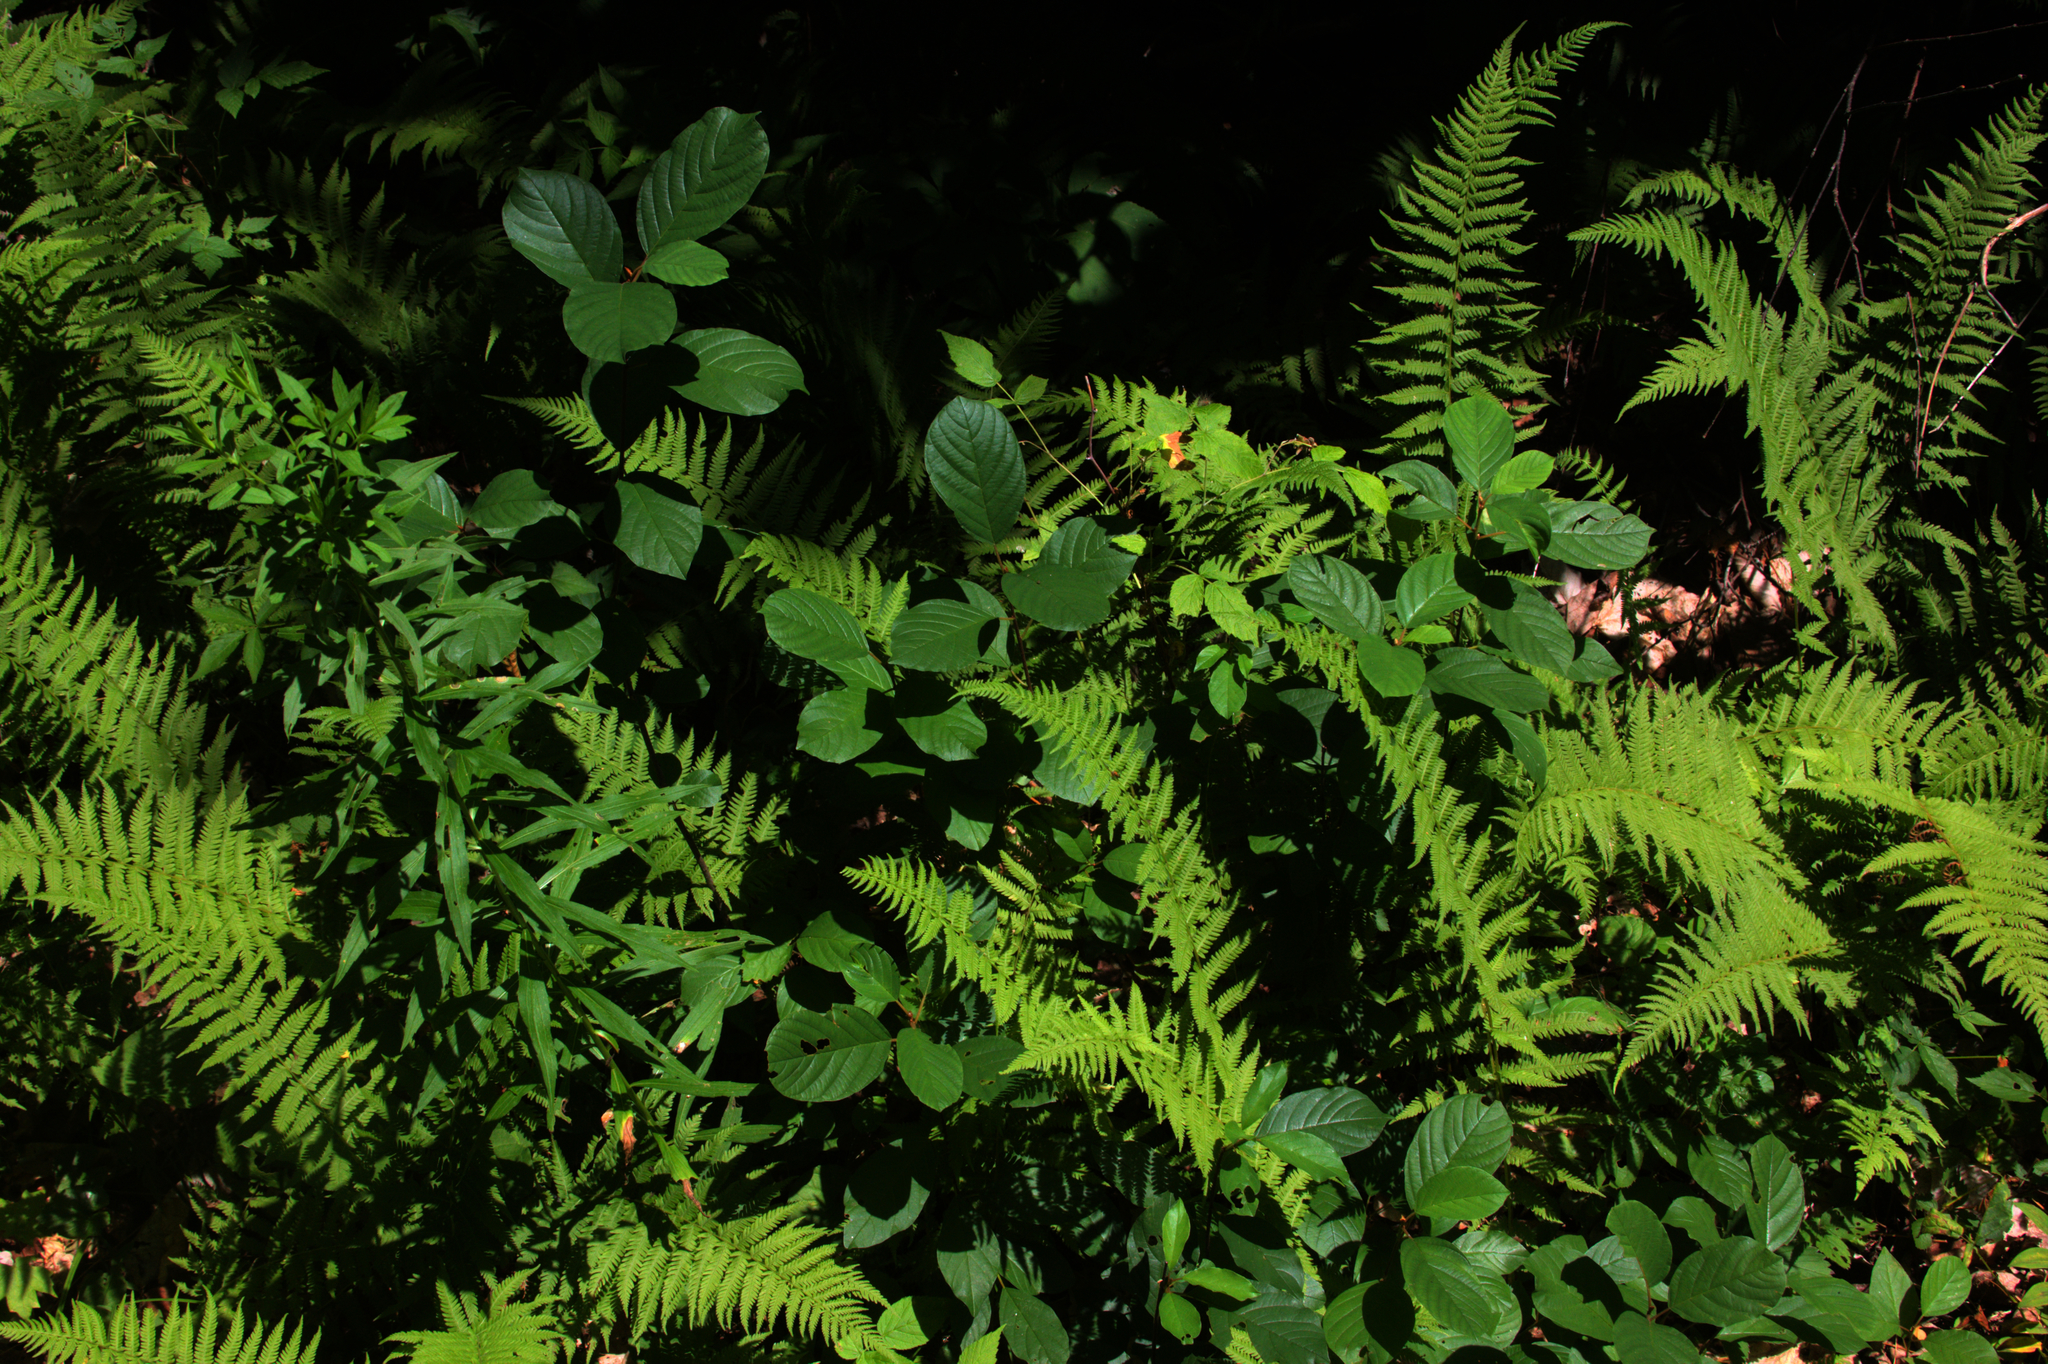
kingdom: Plantae
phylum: Tracheophyta
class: Magnoliopsida
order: Rosales
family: Rhamnaceae
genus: Frangula
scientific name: Frangula alnus
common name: Alder buckthorn
